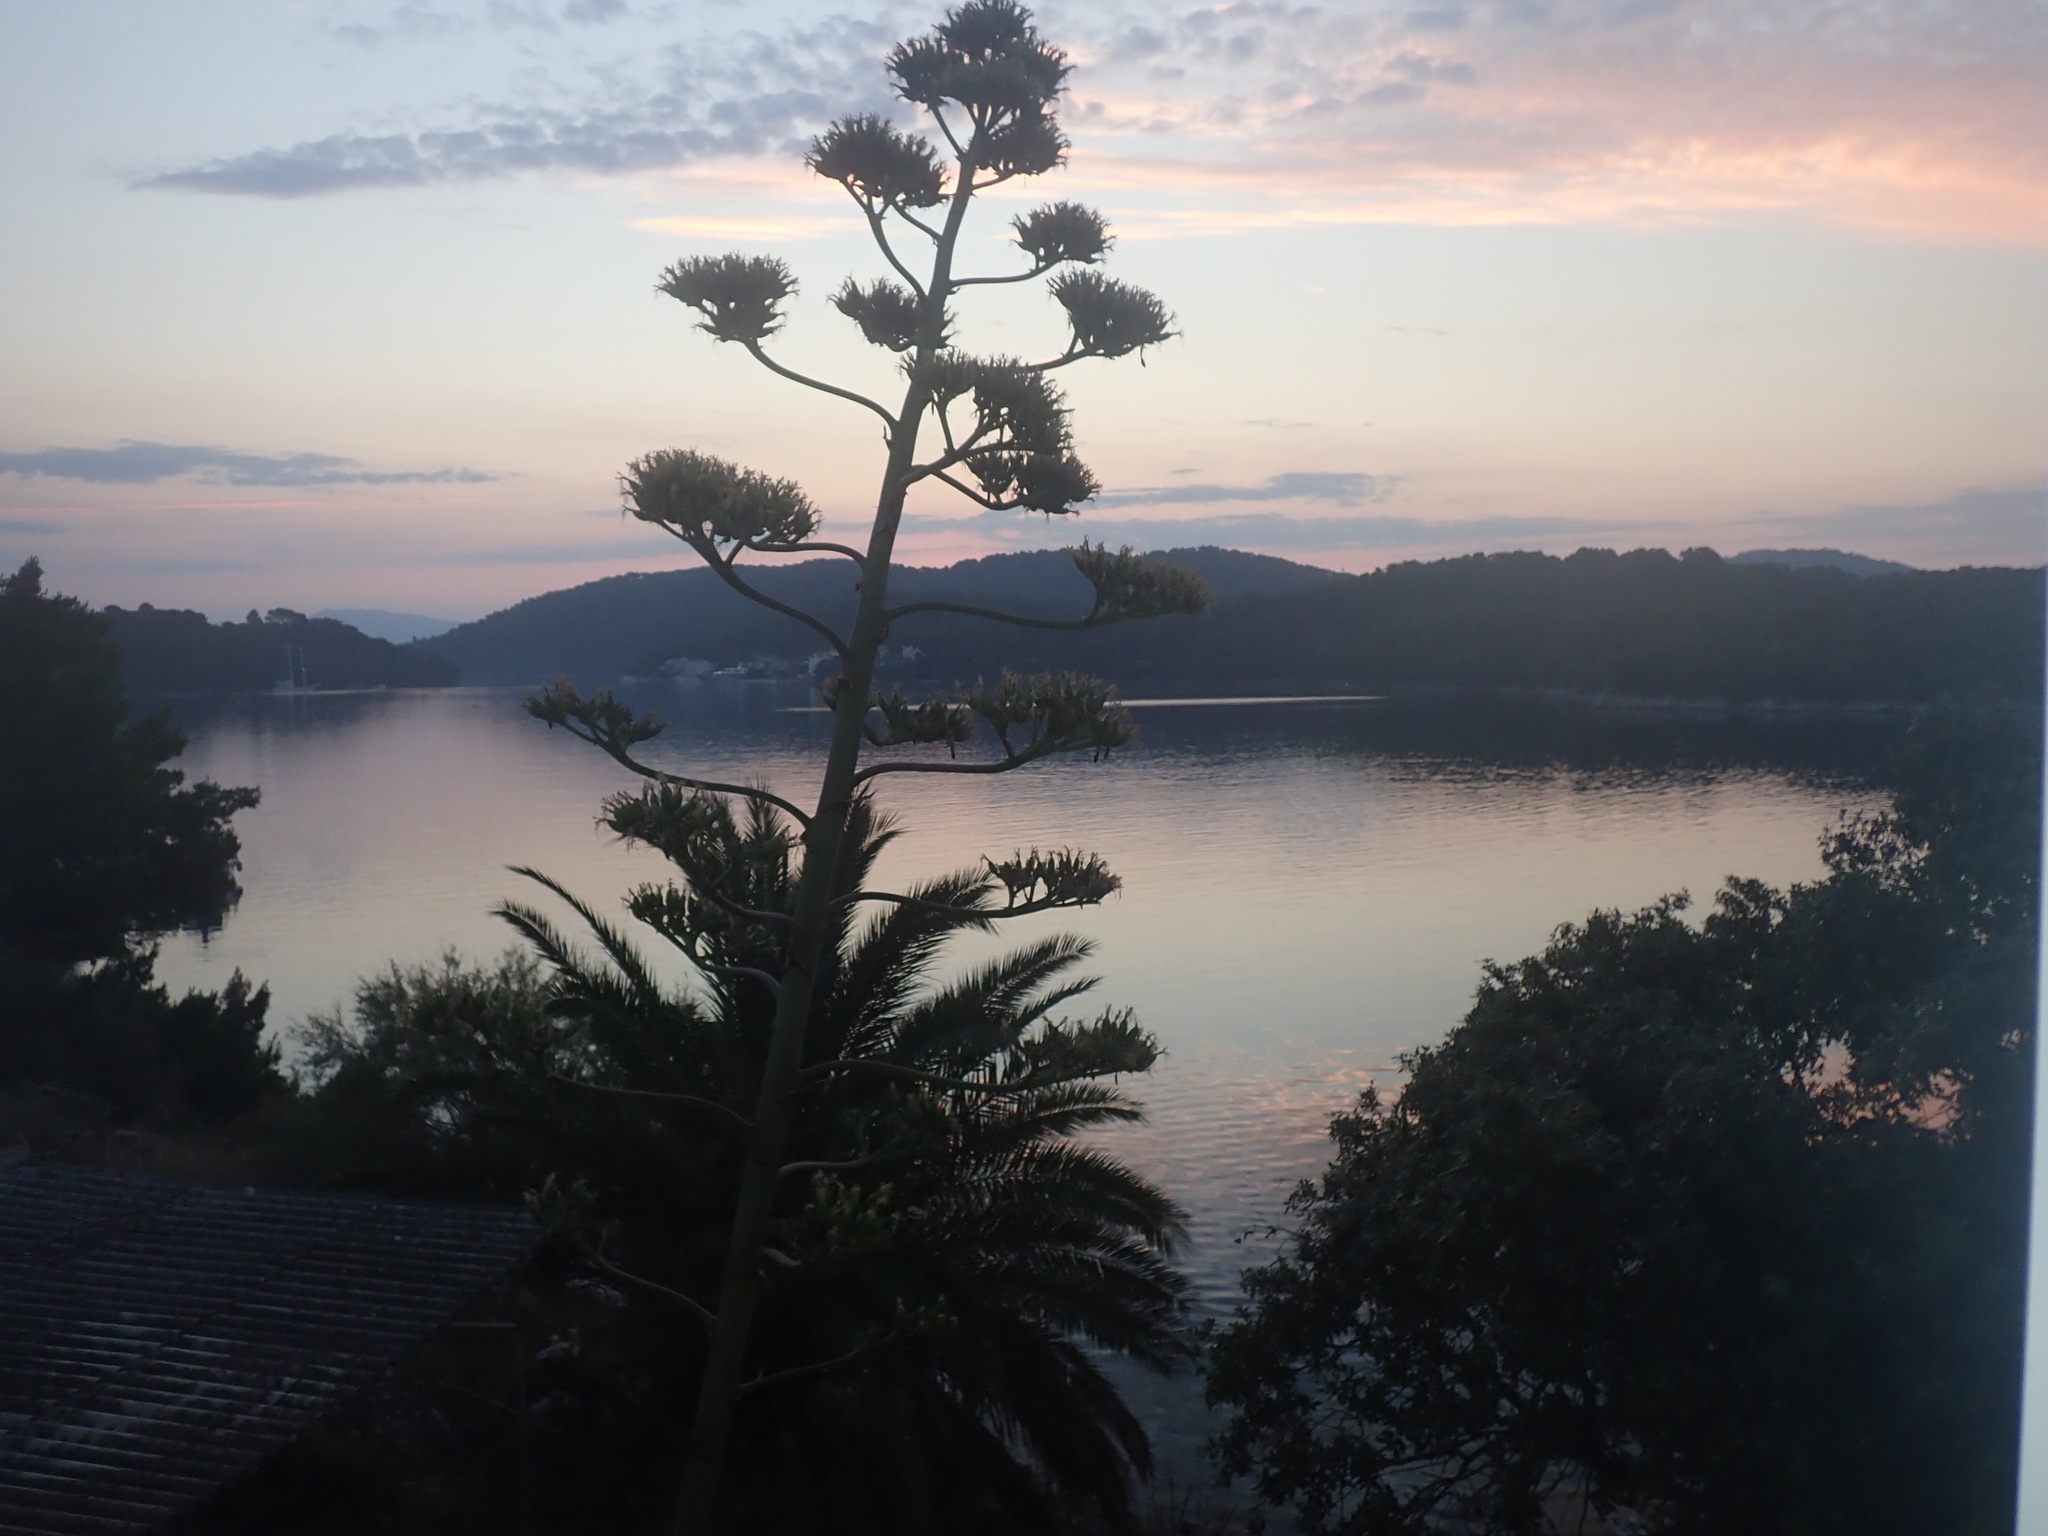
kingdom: Plantae
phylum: Tracheophyta
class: Liliopsida
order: Asparagales
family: Asparagaceae
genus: Agave
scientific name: Agave americana
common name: Centuryplant
